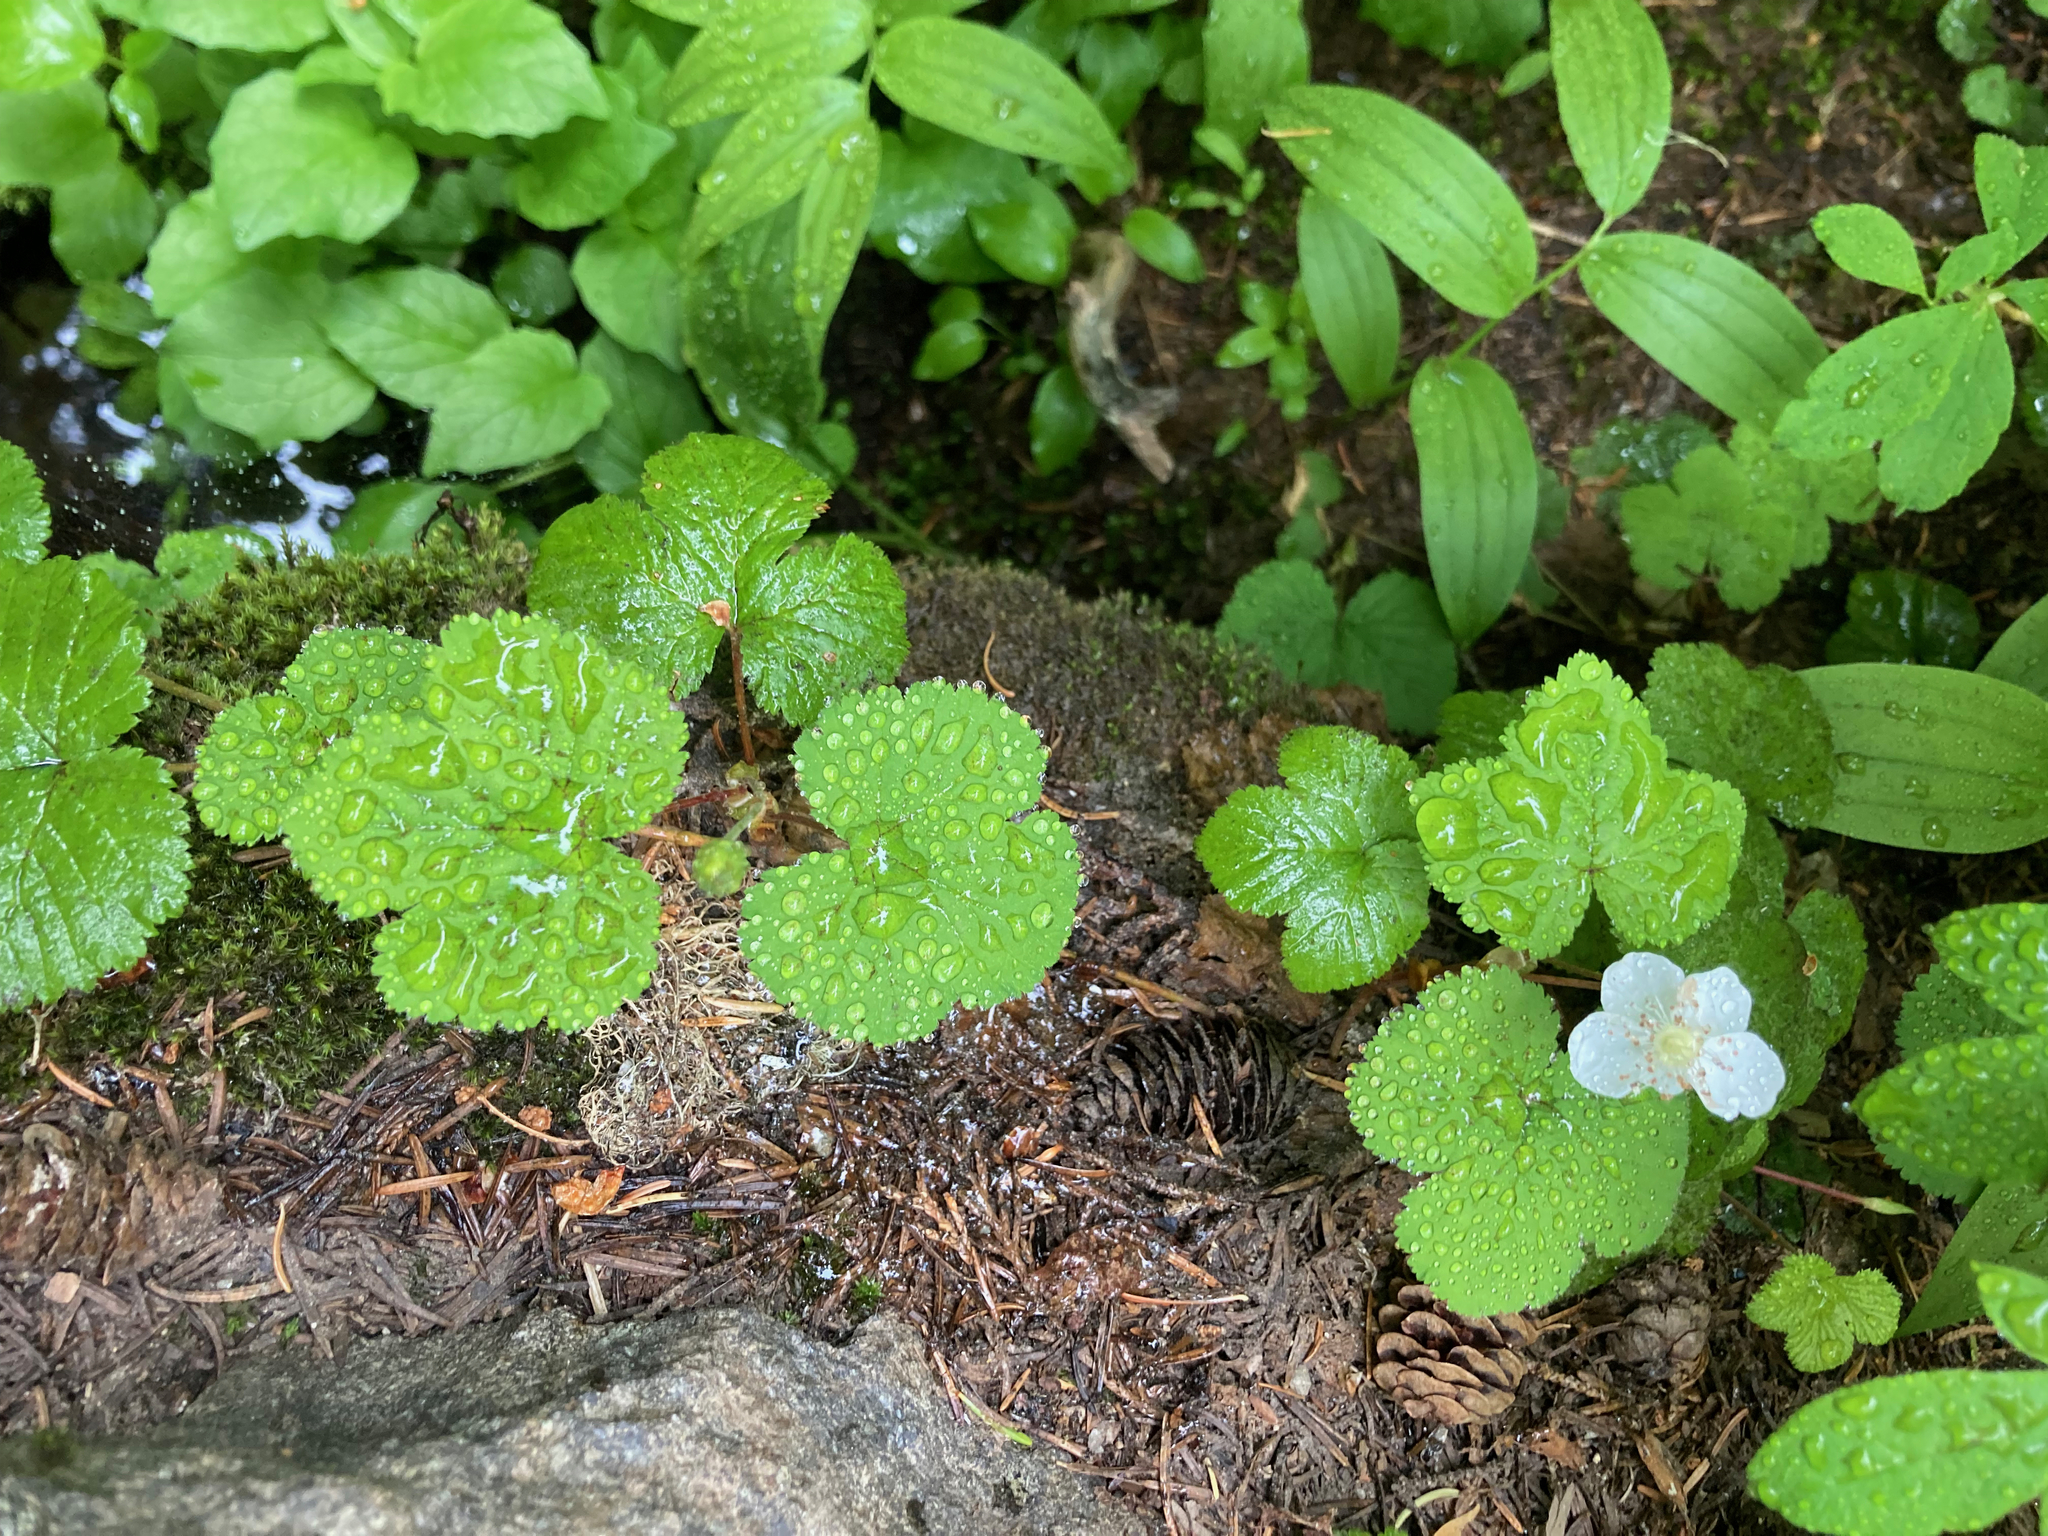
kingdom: Plantae
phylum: Tracheophyta
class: Magnoliopsida
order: Rosales
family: Rosaceae
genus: Rubus
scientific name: Rubus lasiococcus
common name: Dwarf bramble
